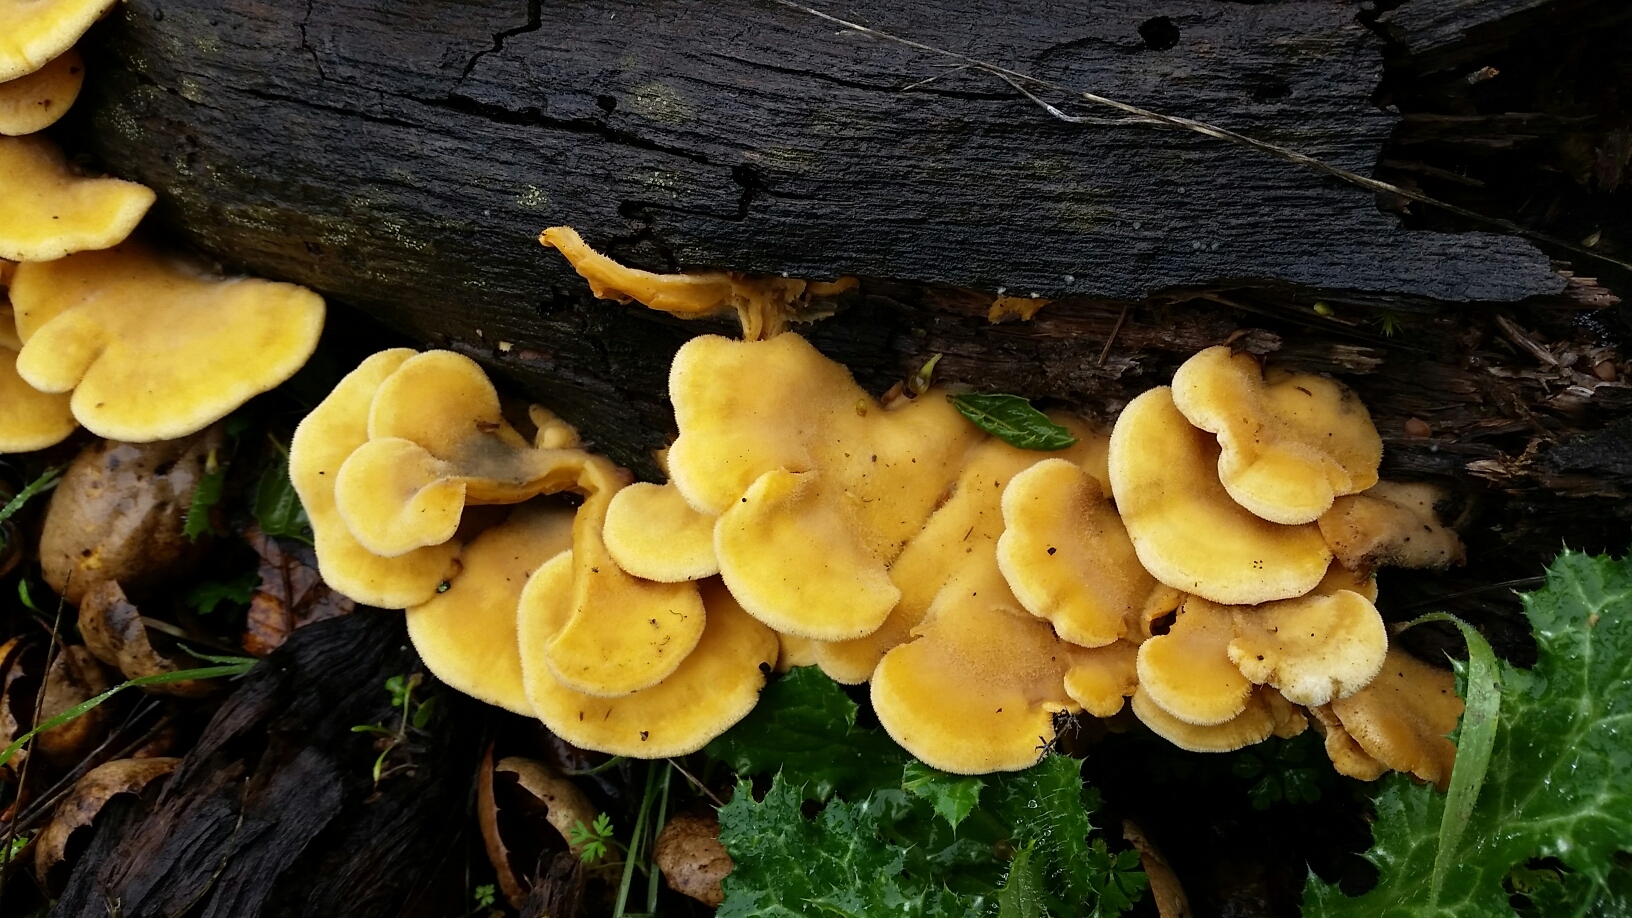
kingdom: Fungi
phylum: Basidiomycota
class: Agaricomycetes
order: Agaricales
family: Phyllotopsidaceae
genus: Phyllotopsis
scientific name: Phyllotopsis nidulans
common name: Orange mock oyster
